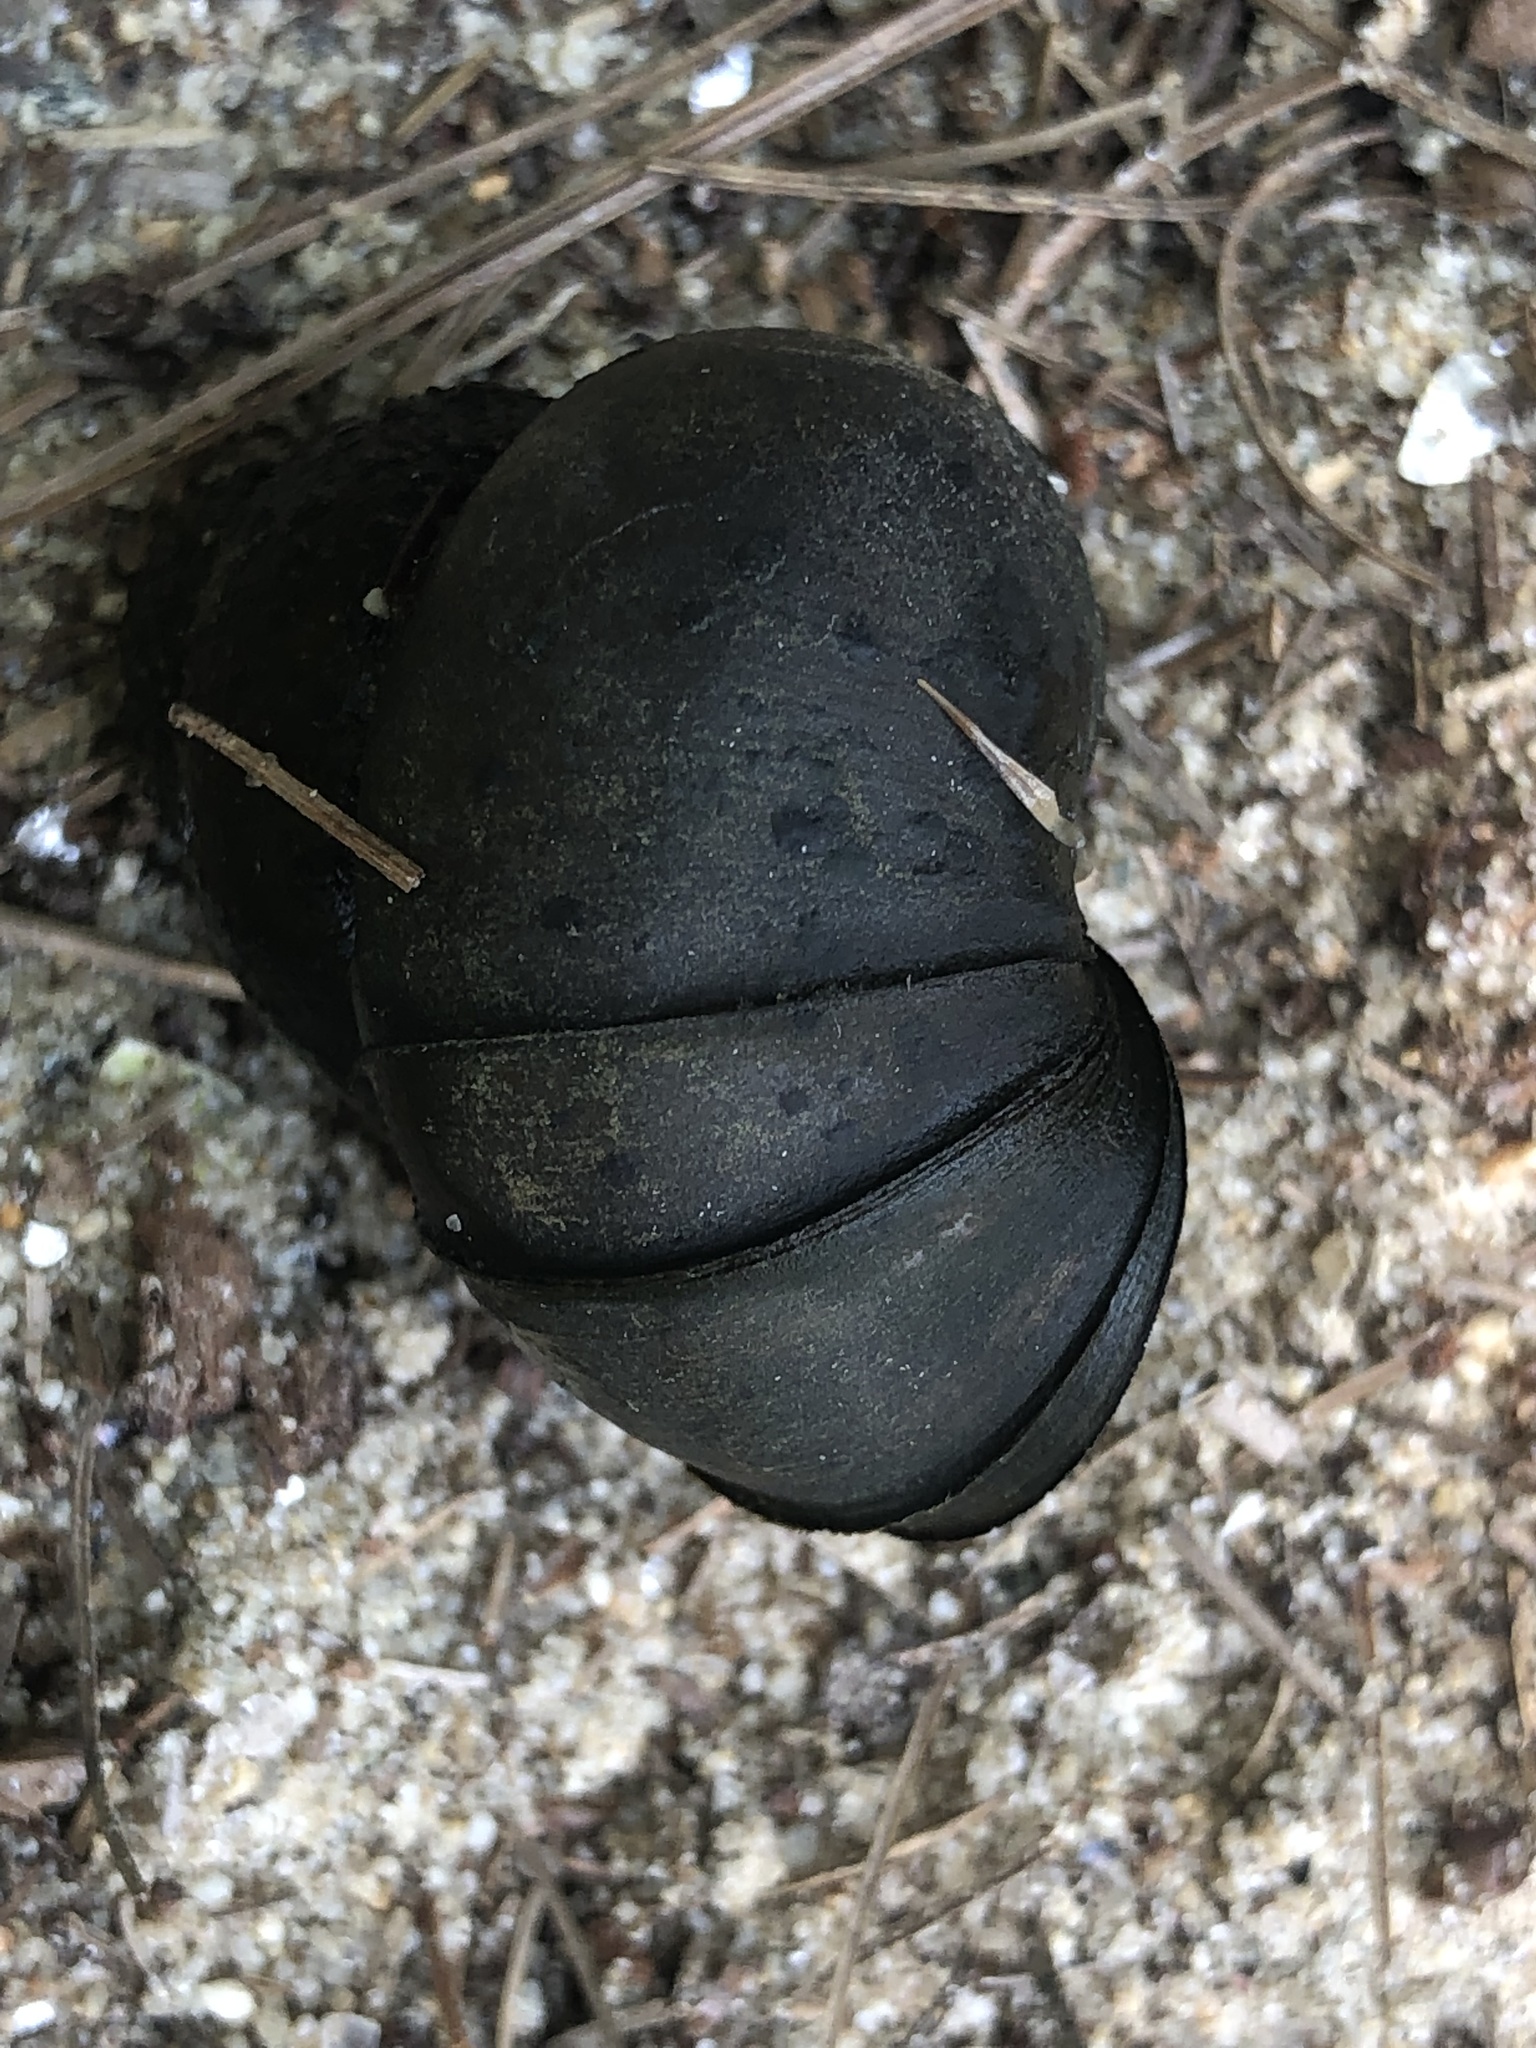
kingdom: Animalia
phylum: Mollusca
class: Gastropoda
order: Architaenioglossa
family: Viviparidae
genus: Cipangopaludina
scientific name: Cipangopaludina chinensis
